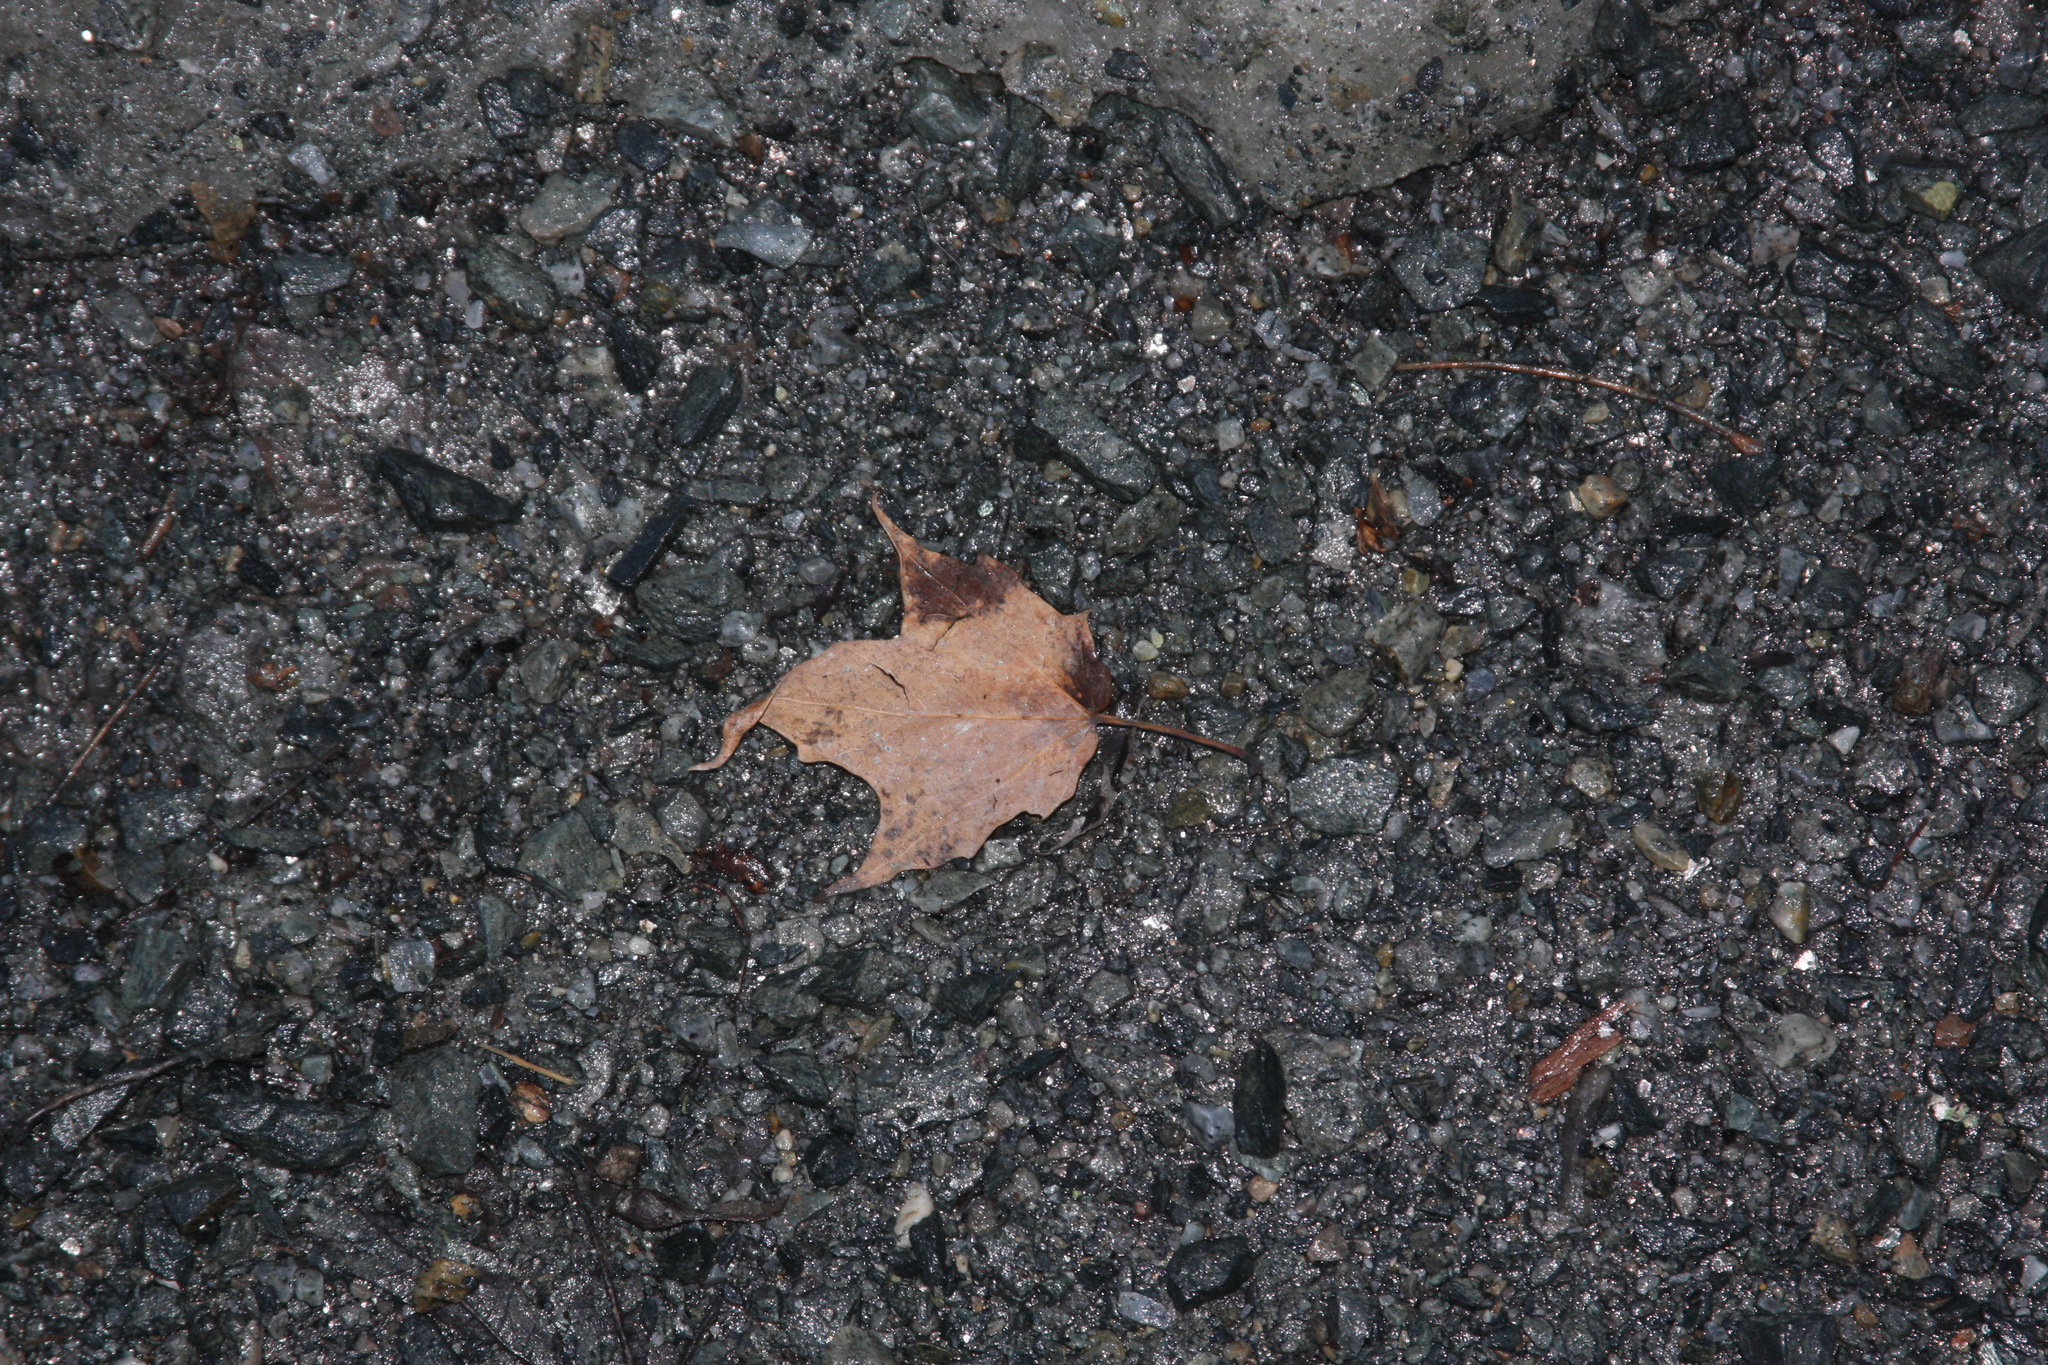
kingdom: Plantae
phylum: Tracheophyta
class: Magnoliopsida
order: Sapindales
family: Sapindaceae
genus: Acer
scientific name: Acer rubrum
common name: Red maple
